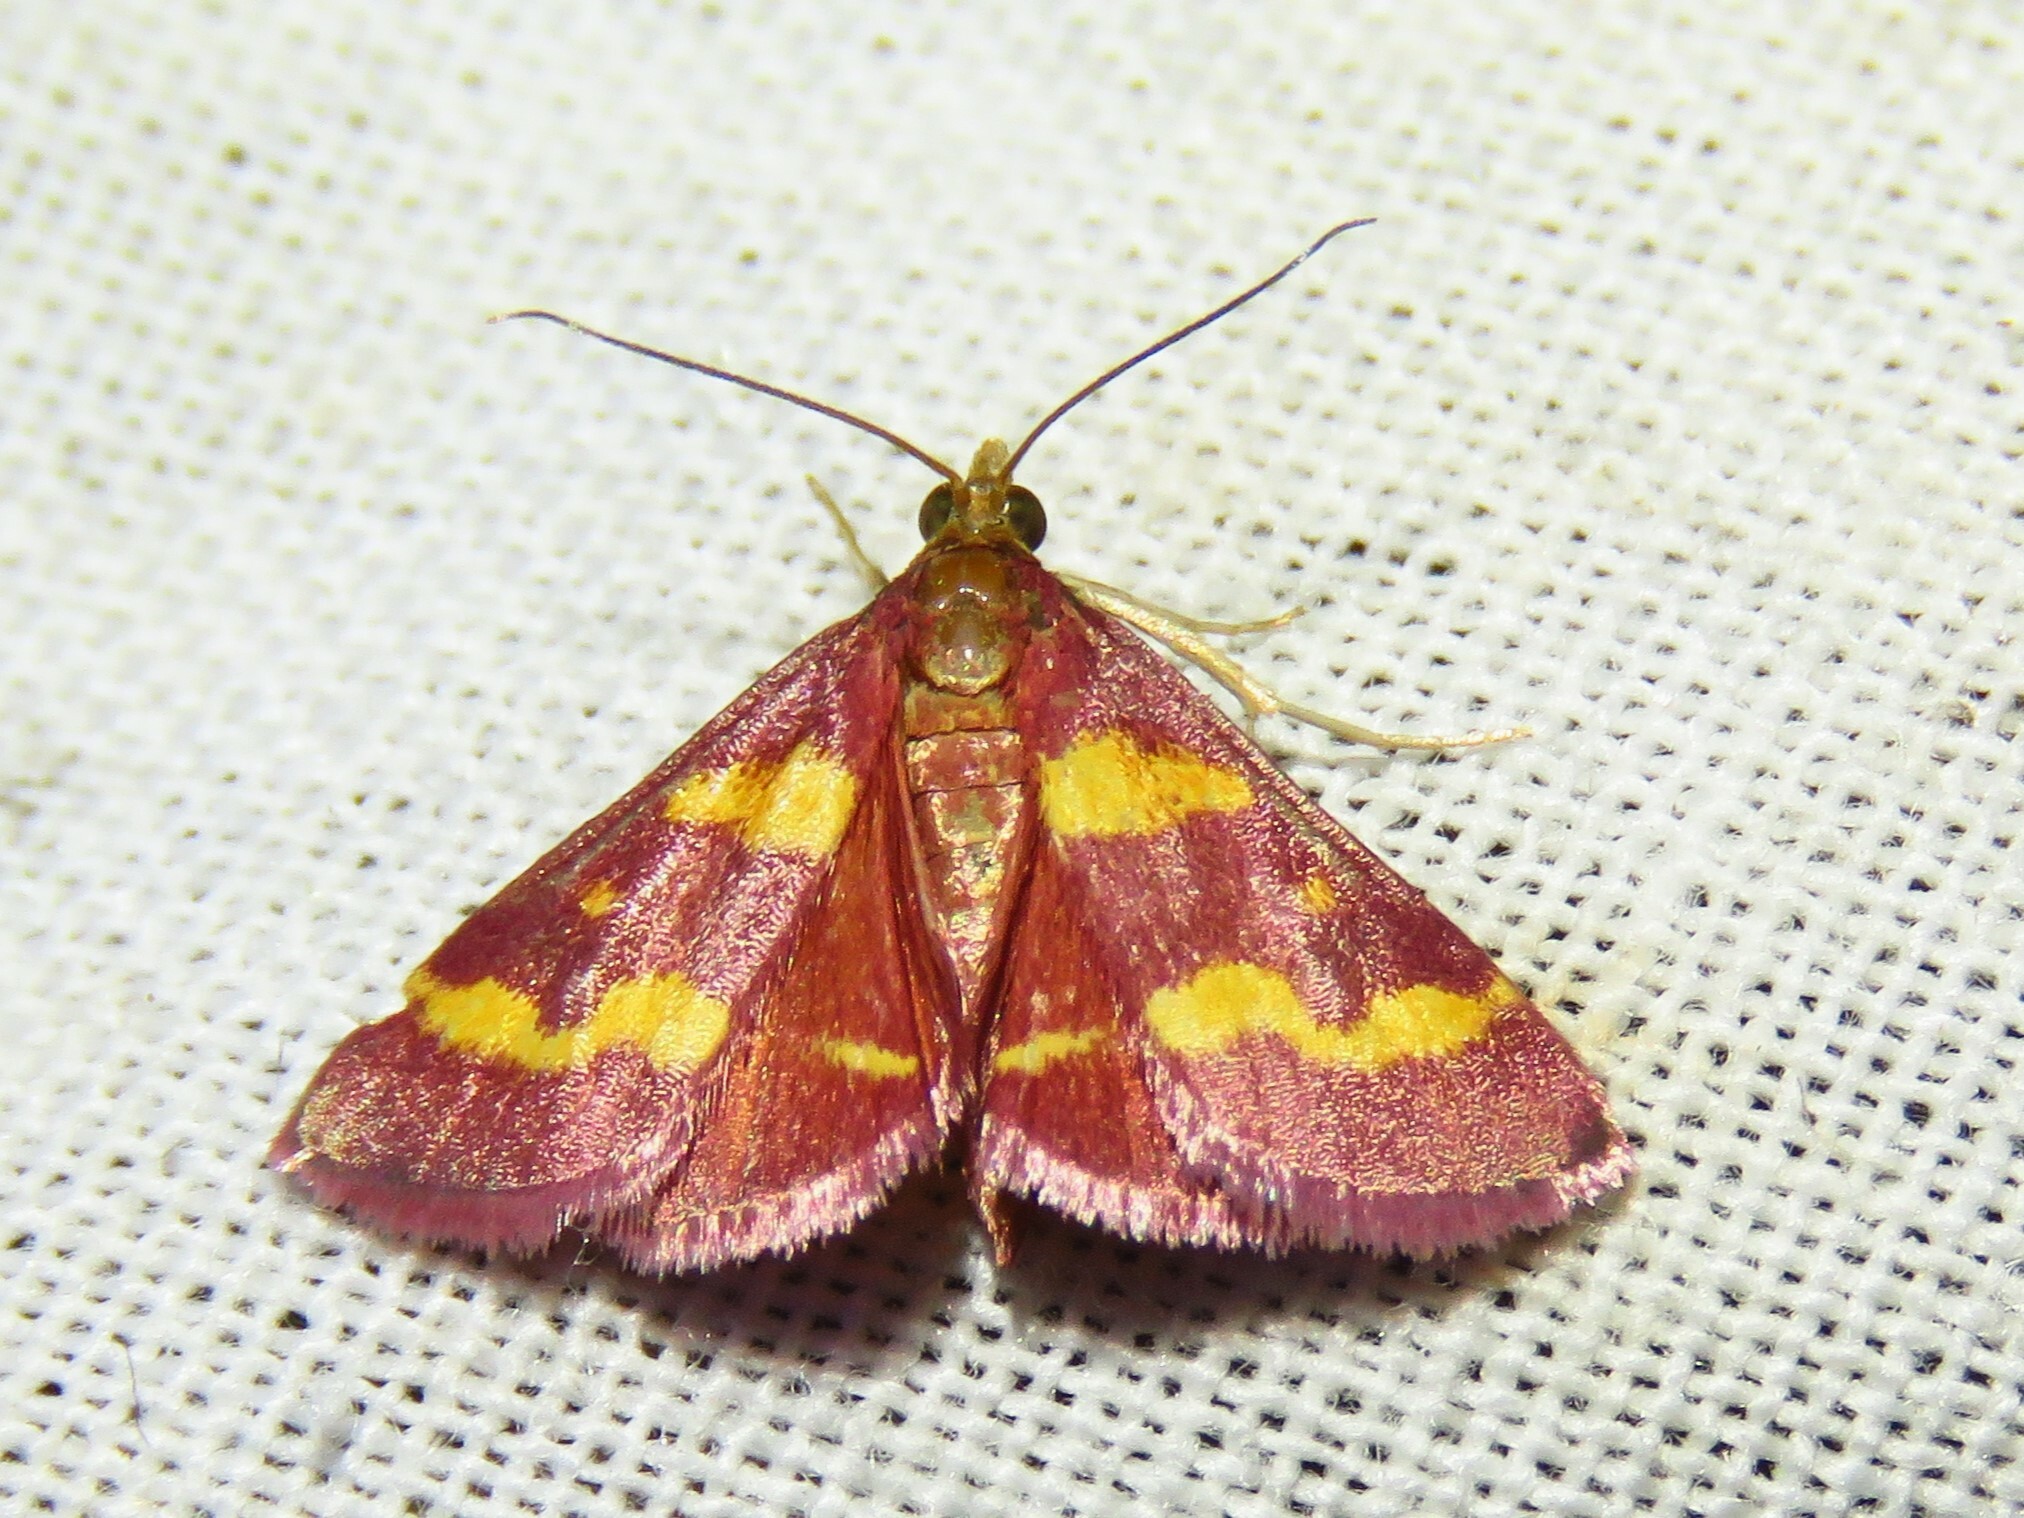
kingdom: Animalia
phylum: Arthropoda
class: Insecta
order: Lepidoptera
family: Crambidae
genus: Pyrausta
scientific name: Pyrausta tyralis
